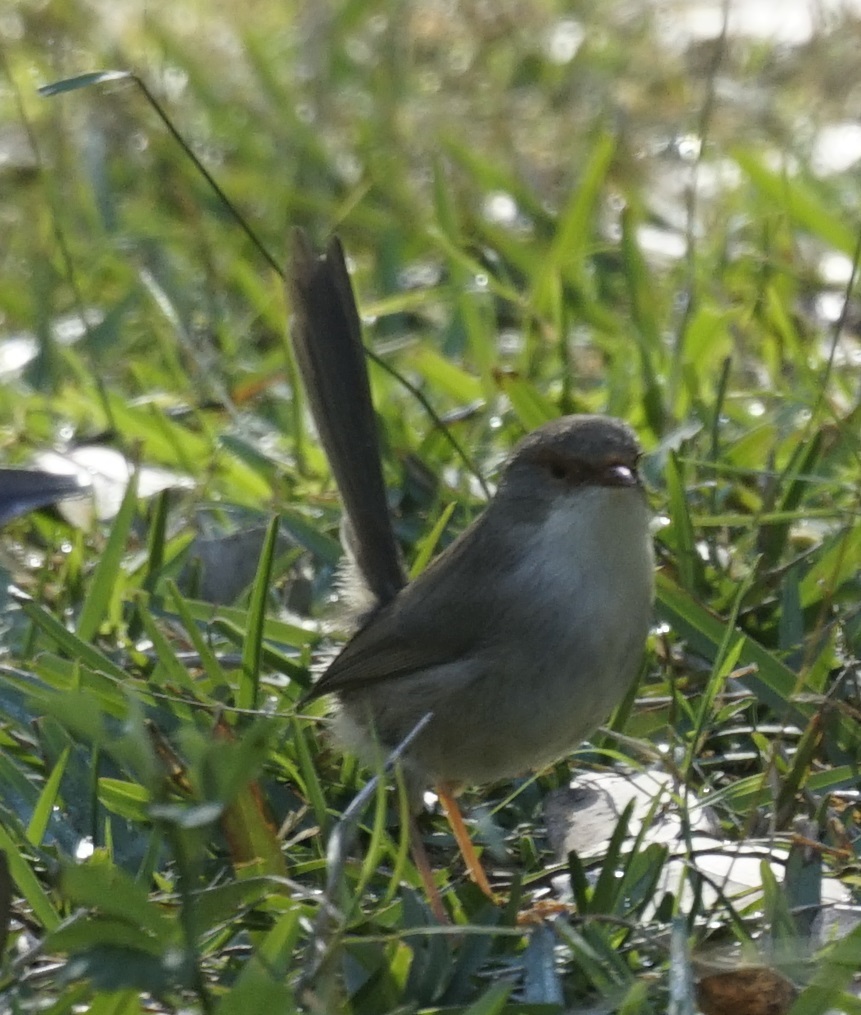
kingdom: Animalia
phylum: Chordata
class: Aves
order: Passeriformes
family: Maluridae
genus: Malurus
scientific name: Malurus cyaneus
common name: Superb fairywren
